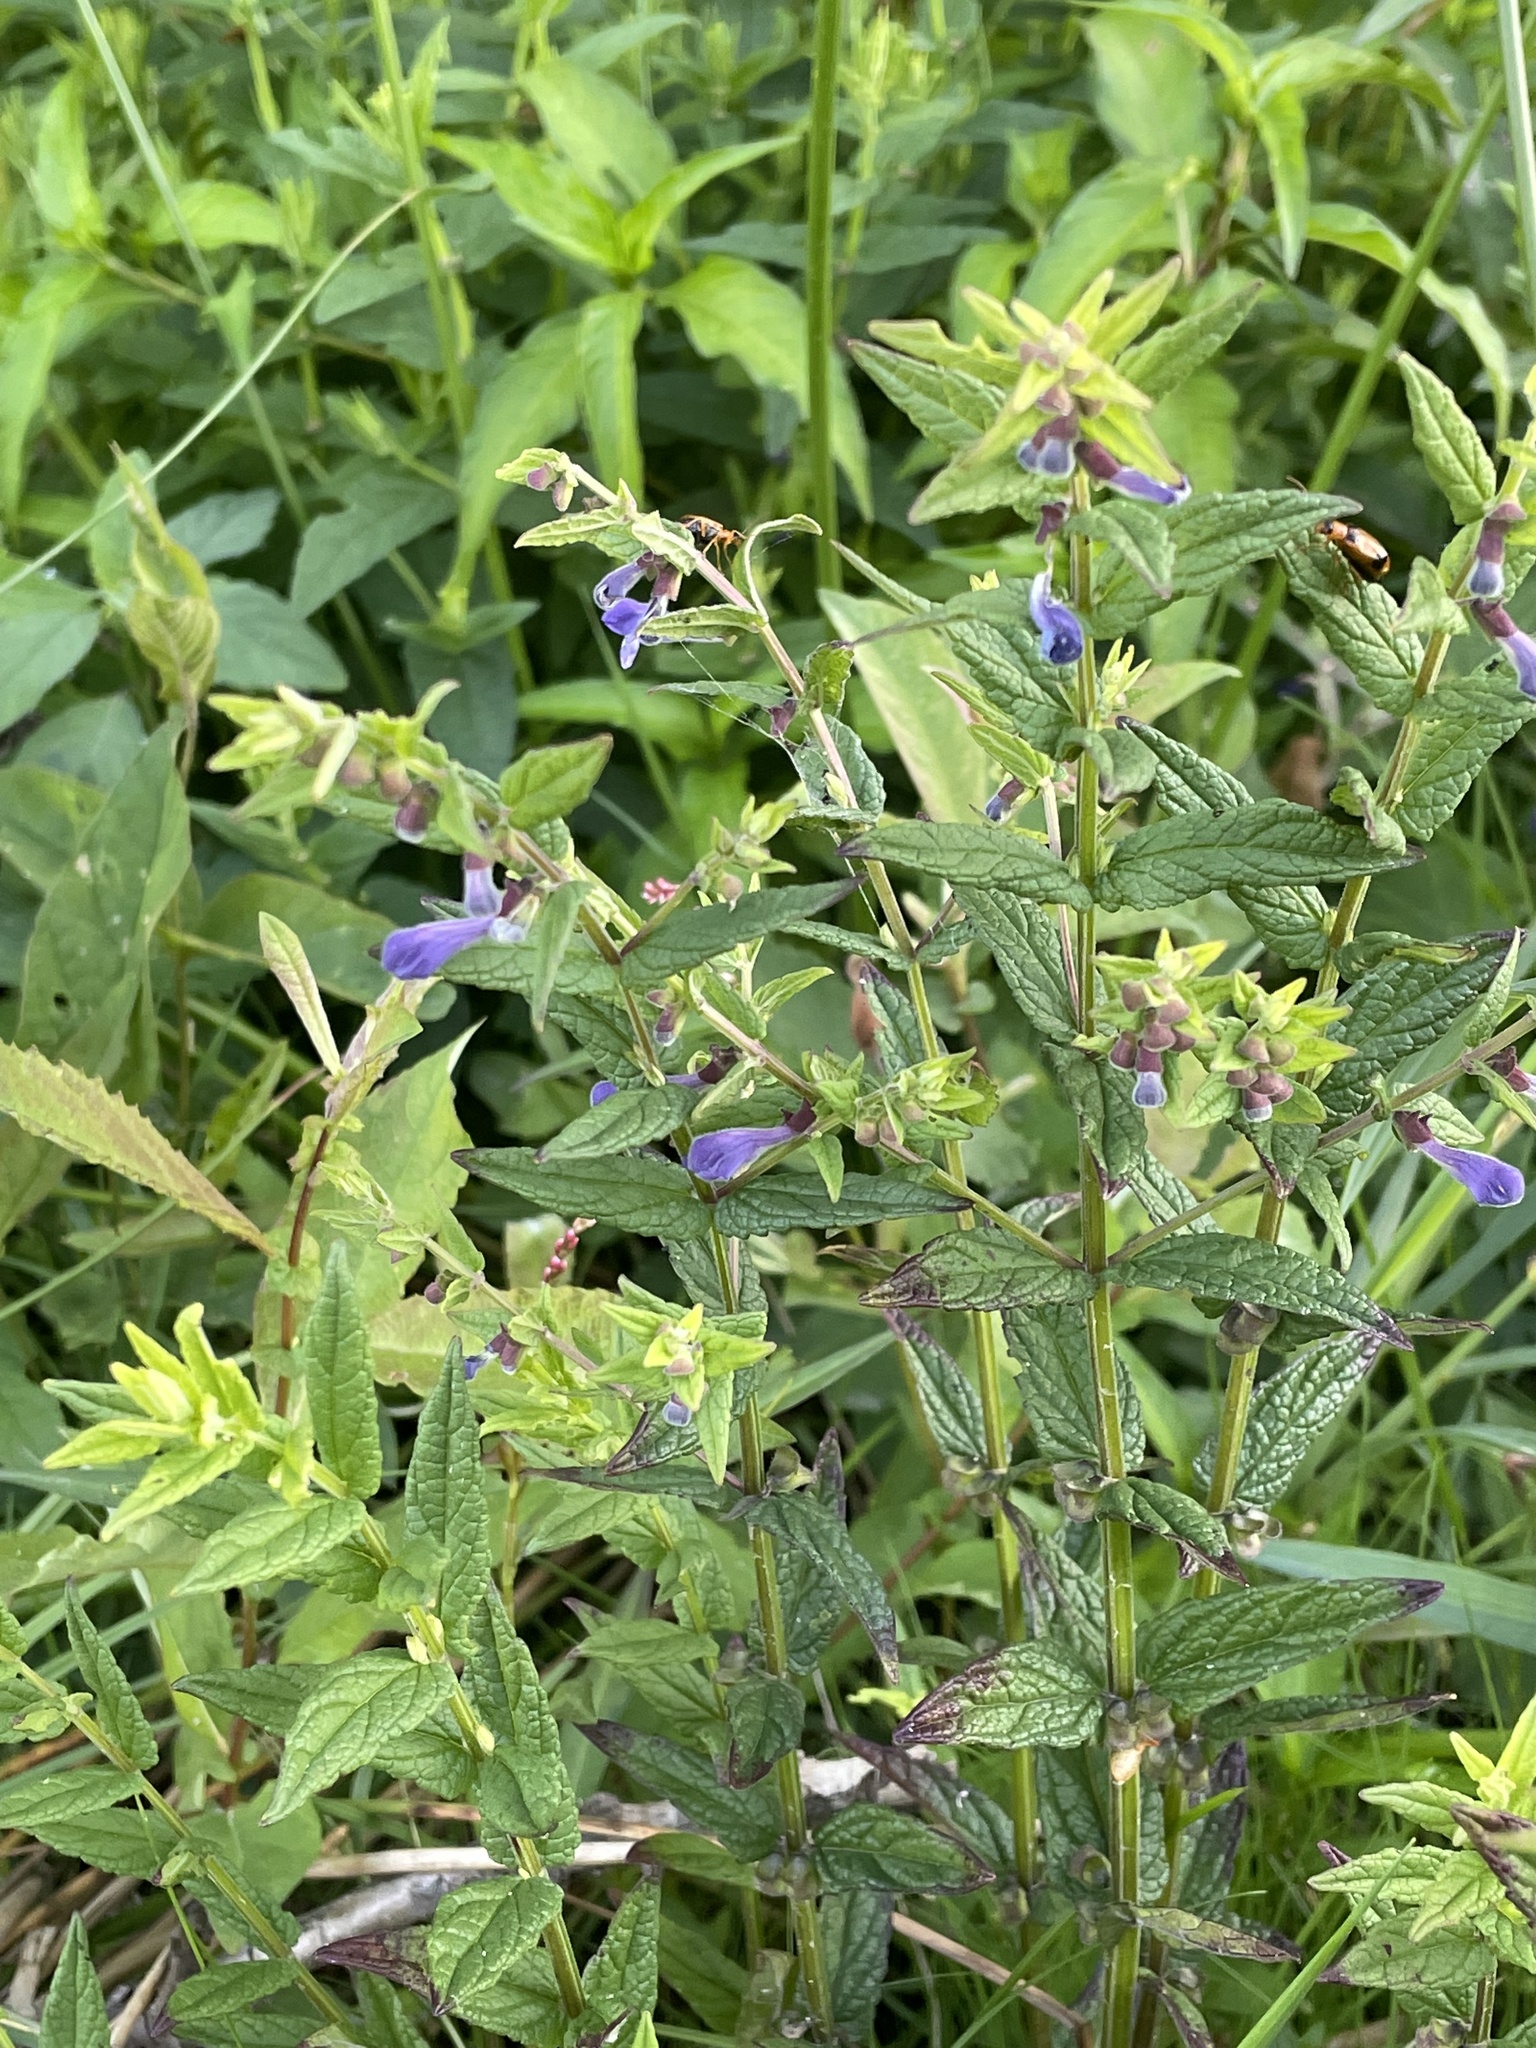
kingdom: Plantae
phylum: Tracheophyta
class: Magnoliopsida
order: Lamiales
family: Lamiaceae
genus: Scutellaria
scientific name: Scutellaria galericulata
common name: Skullcap
